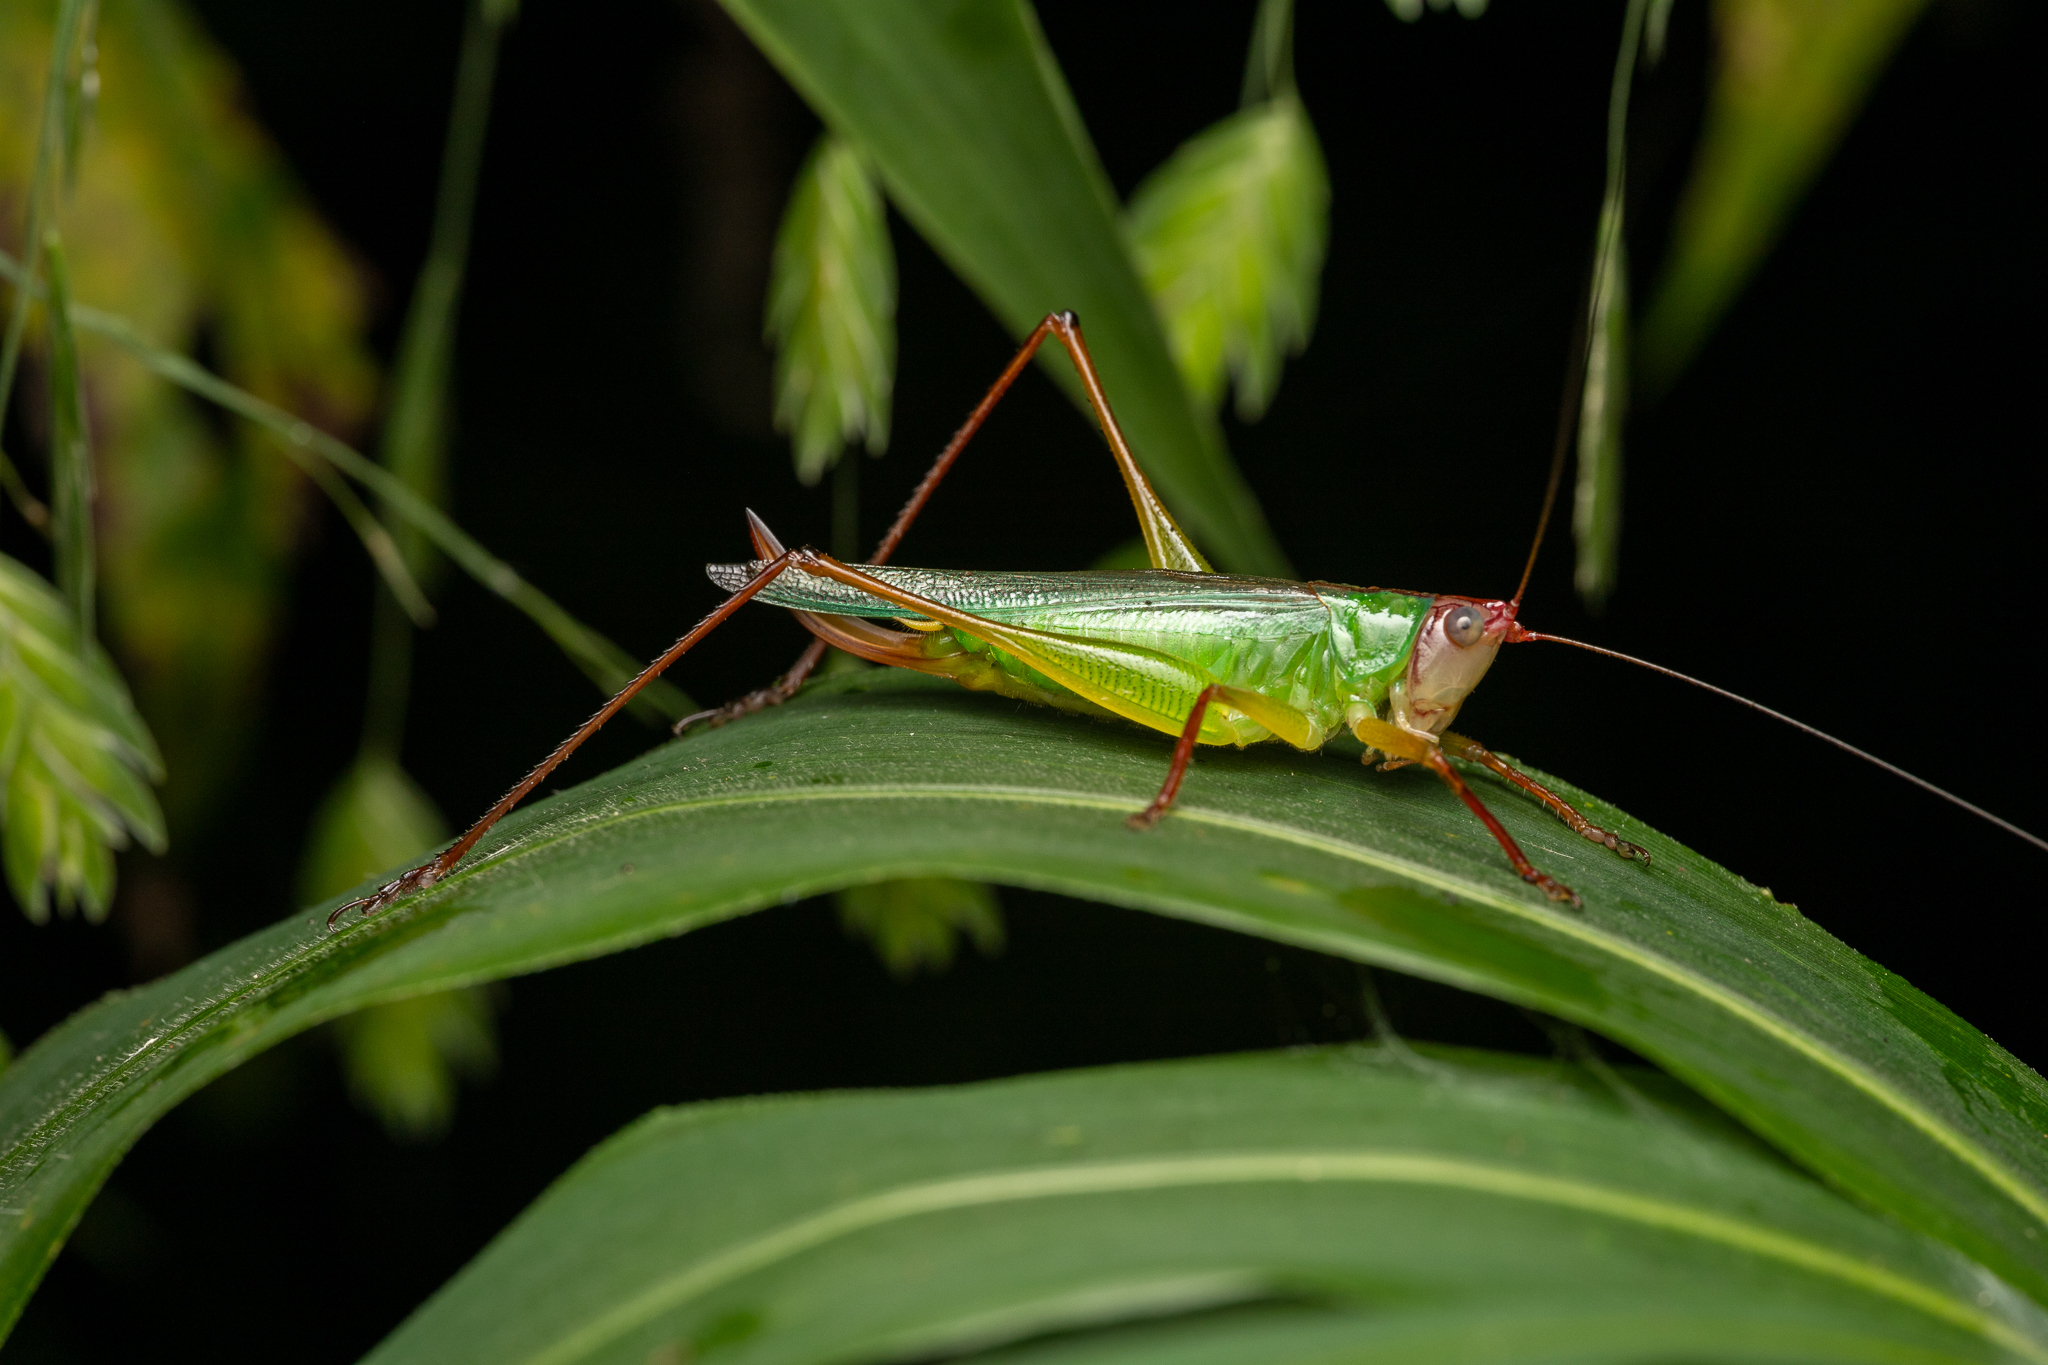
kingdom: Animalia
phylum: Arthropoda
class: Insecta
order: Orthoptera
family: Tettigoniidae
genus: Orchelimum
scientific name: Orchelimum pulchellum
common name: Handsome meadow katydid
